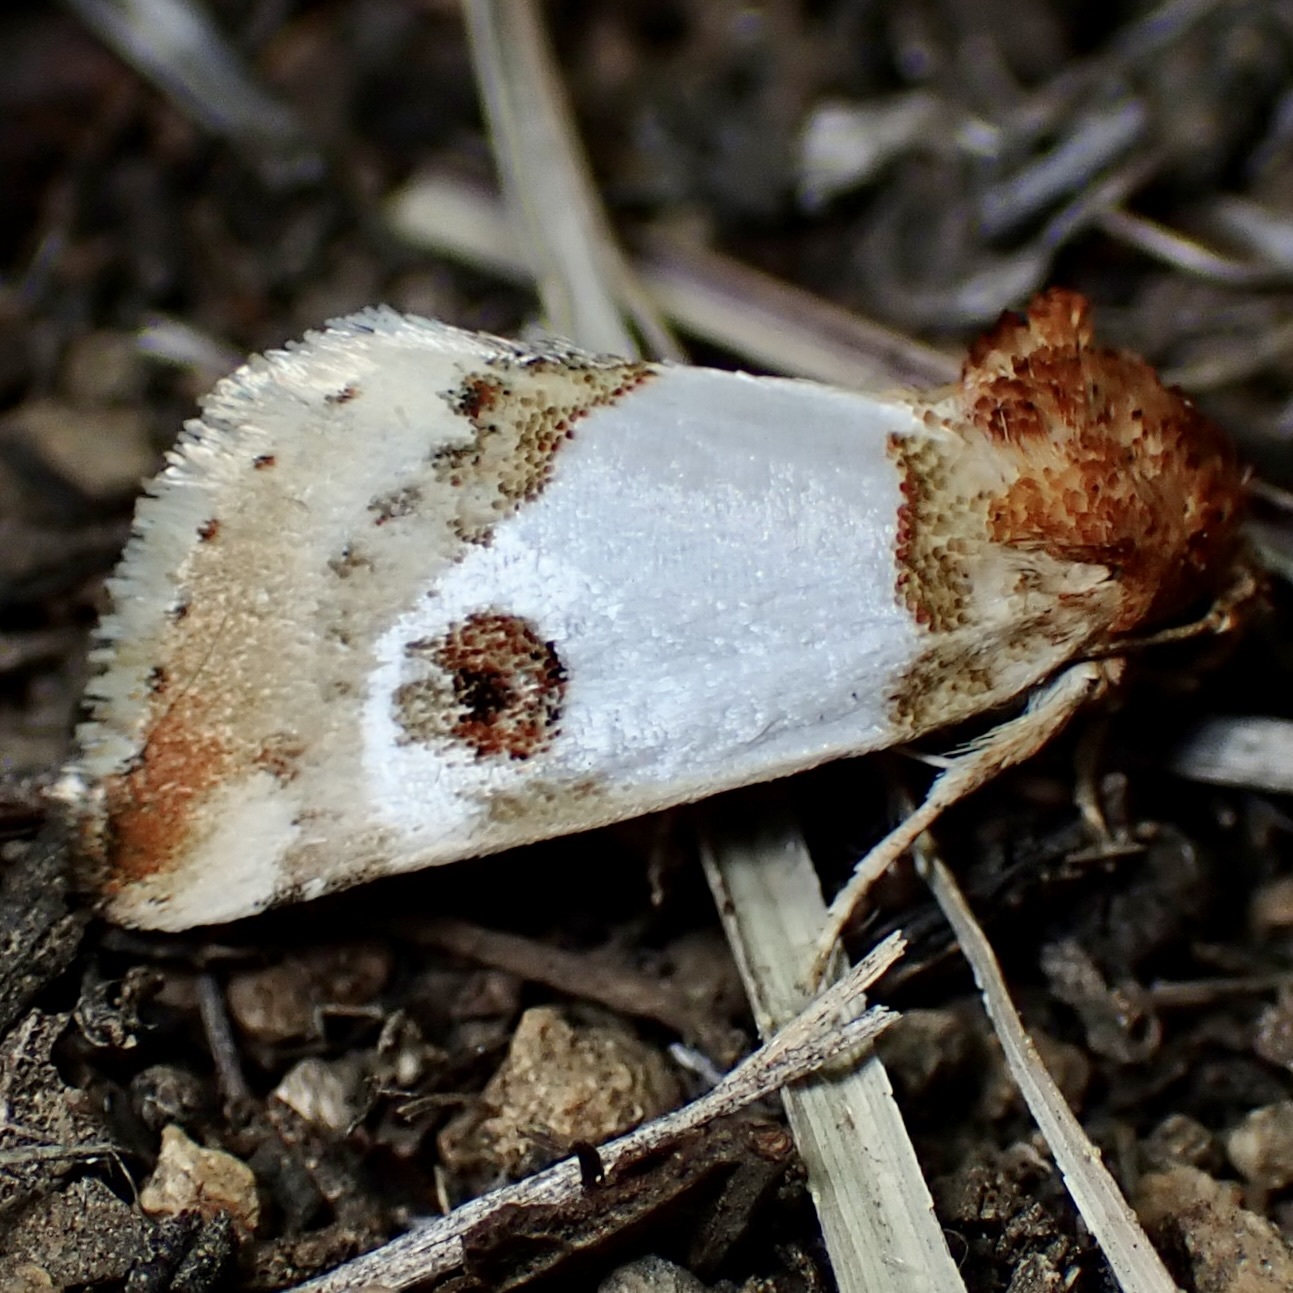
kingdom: Animalia
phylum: Arthropoda
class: Insecta
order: Lepidoptera
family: Noctuidae
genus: Schinia
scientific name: Schinia oculata
